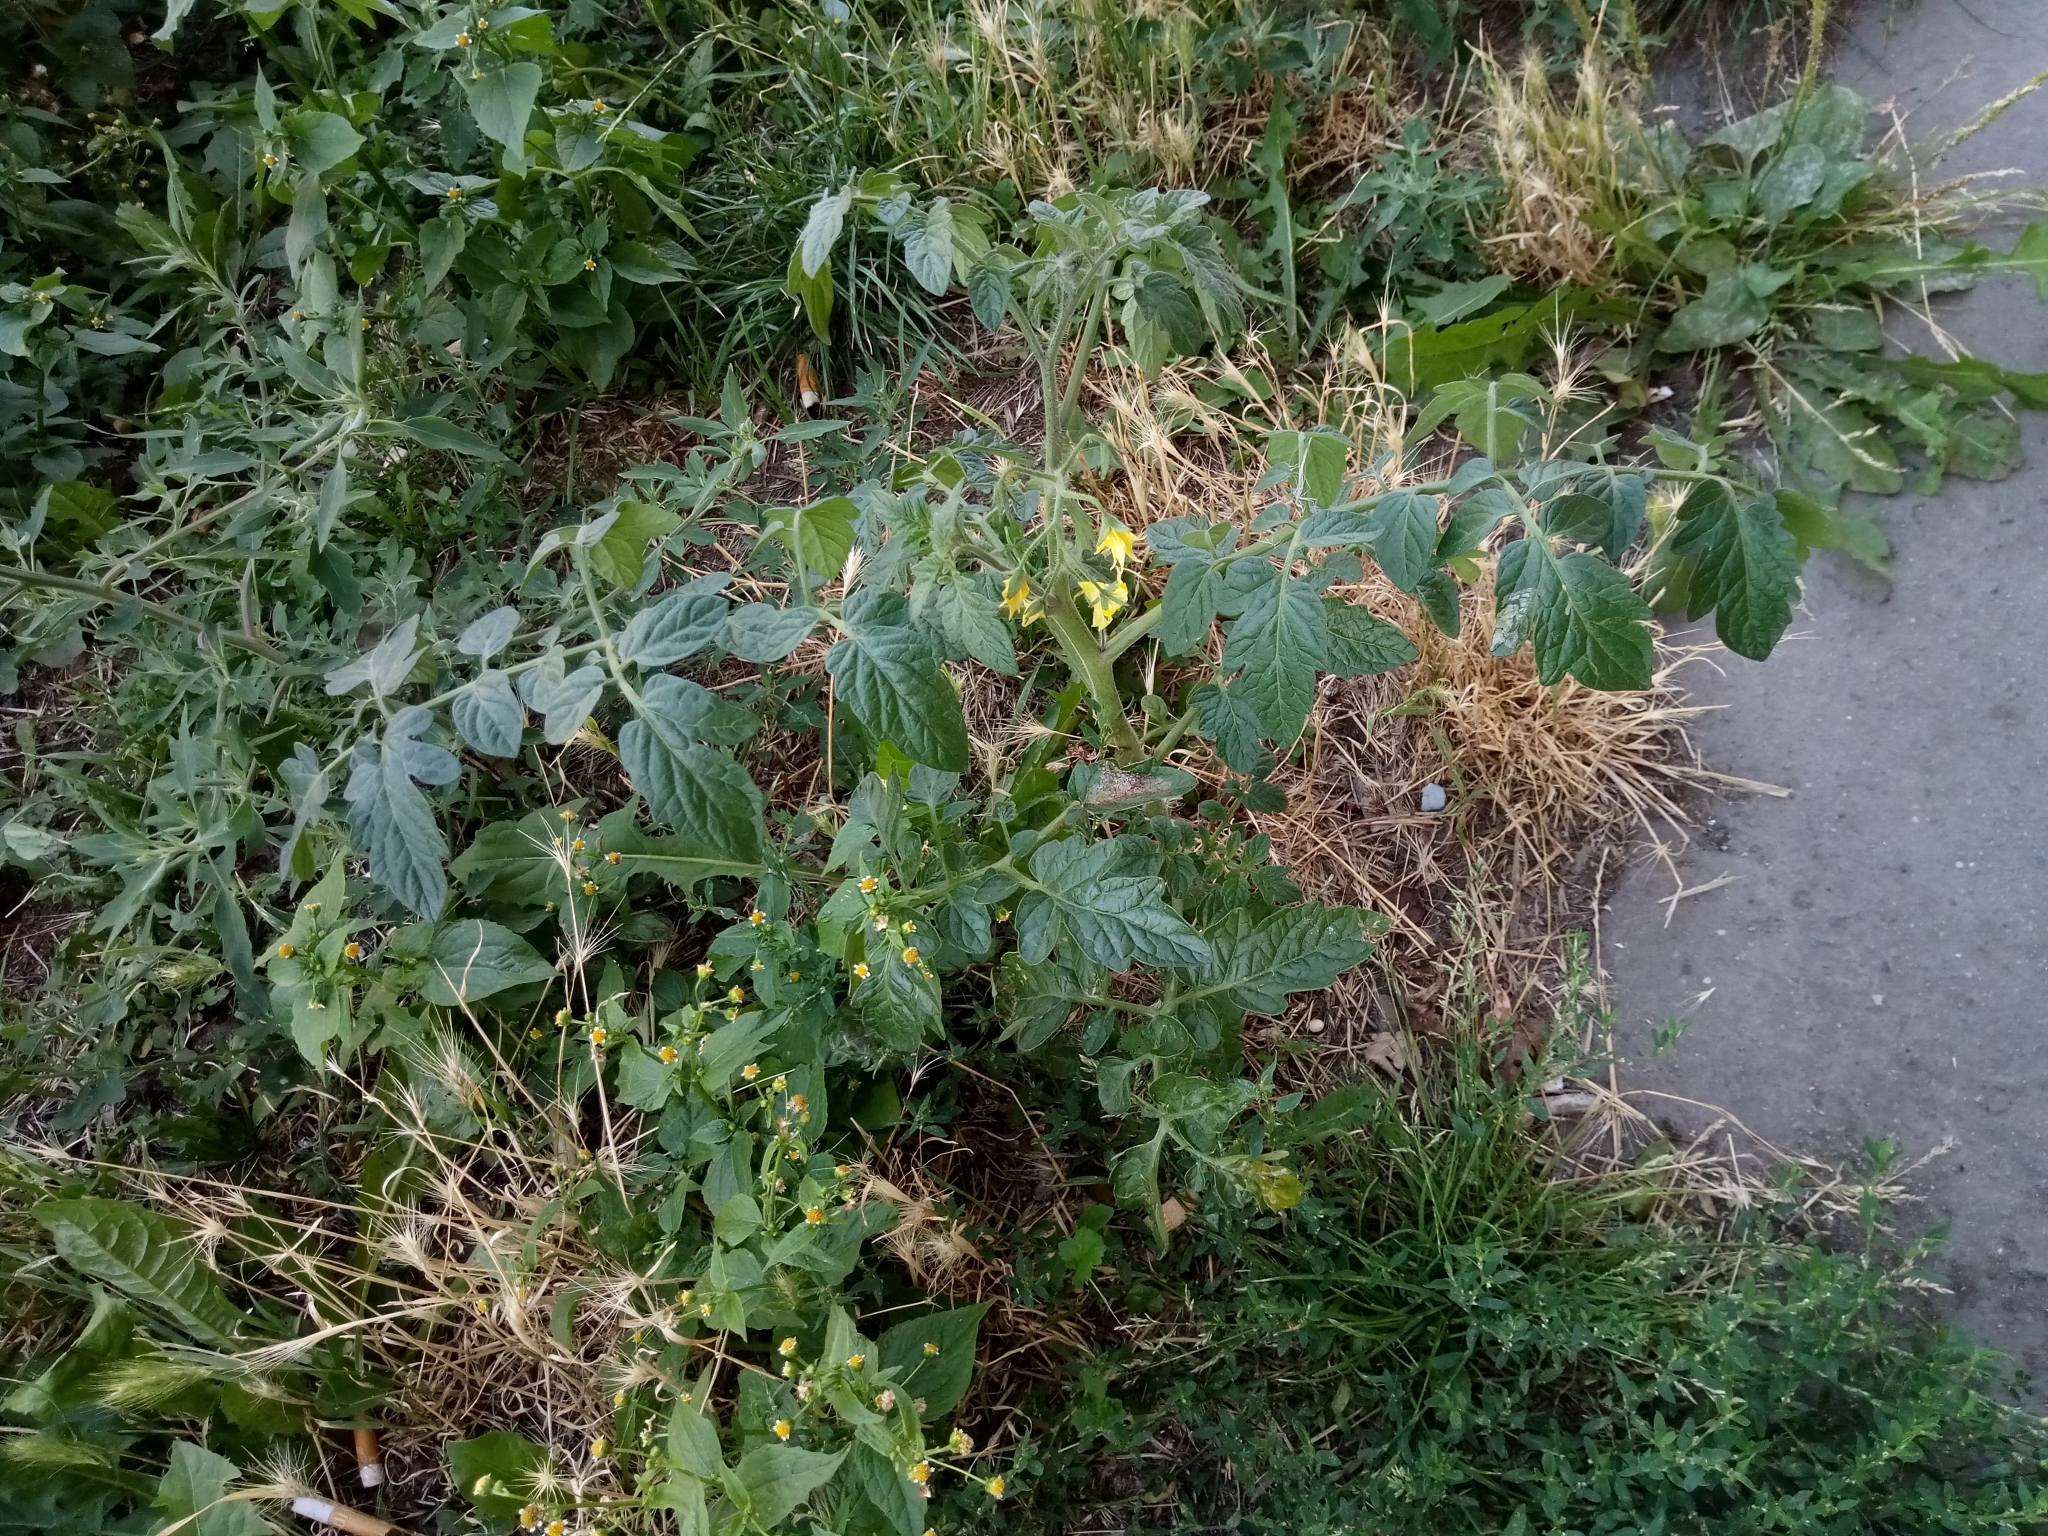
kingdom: Plantae
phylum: Tracheophyta
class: Magnoliopsida
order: Solanales
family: Solanaceae
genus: Solanum
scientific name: Solanum lycopersicum
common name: Garden tomato
